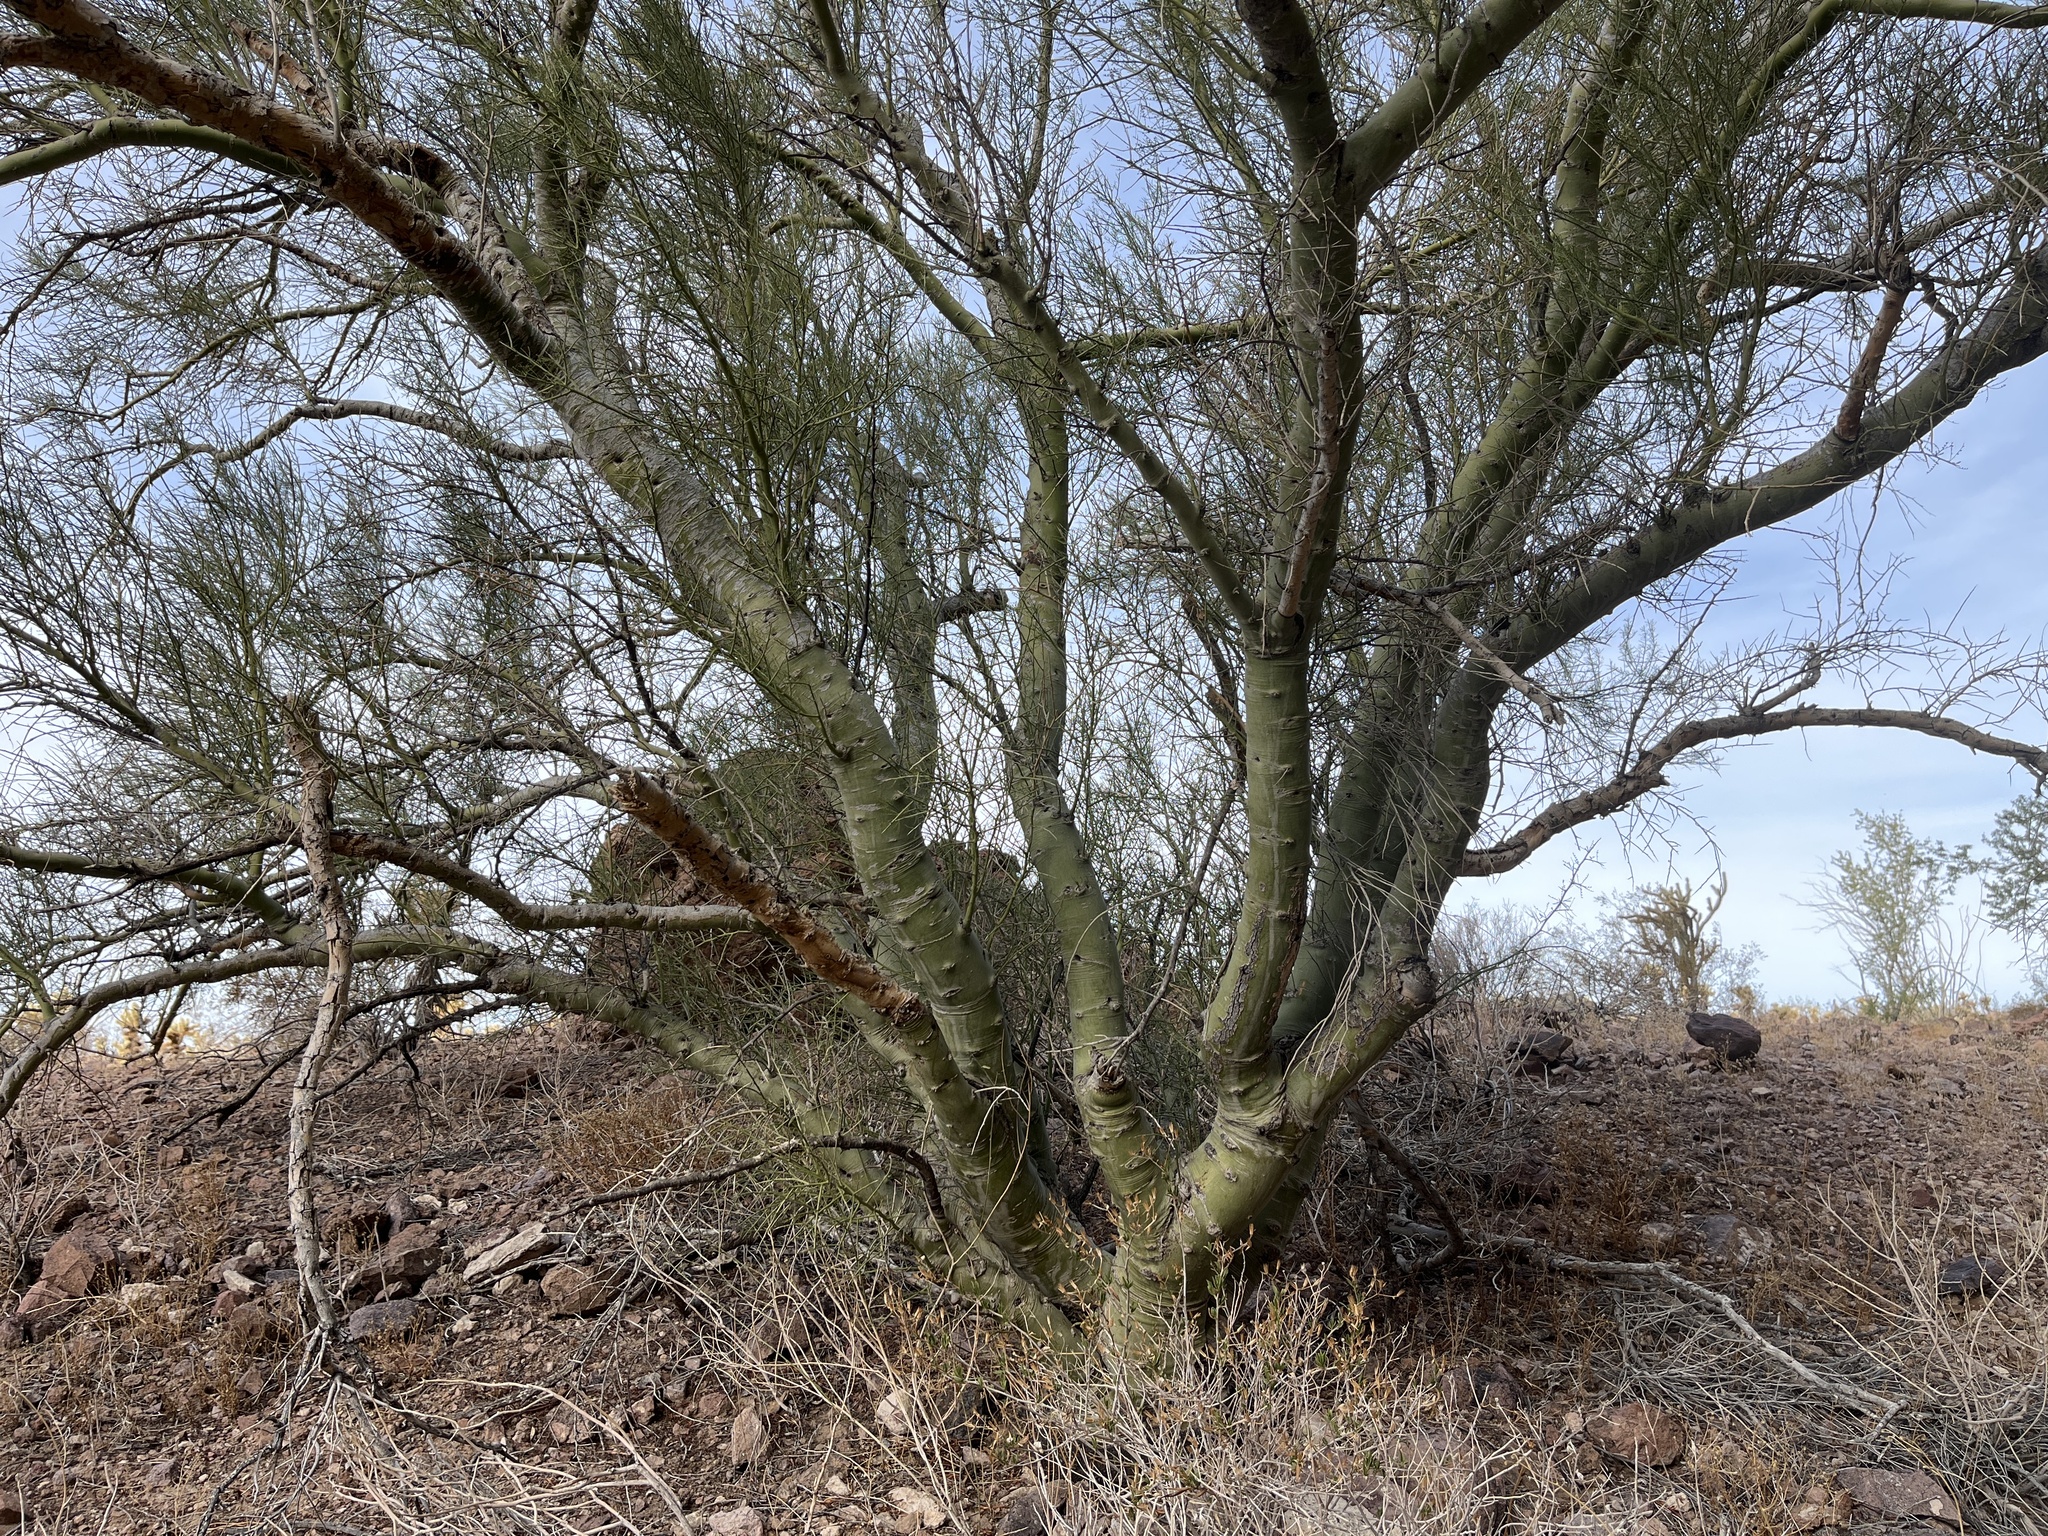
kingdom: Plantae
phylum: Tracheophyta
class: Magnoliopsida
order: Fabales
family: Fabaceae
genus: Parkinsonia
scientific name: Parkinsonia microphylla
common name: Yellow paloverde
